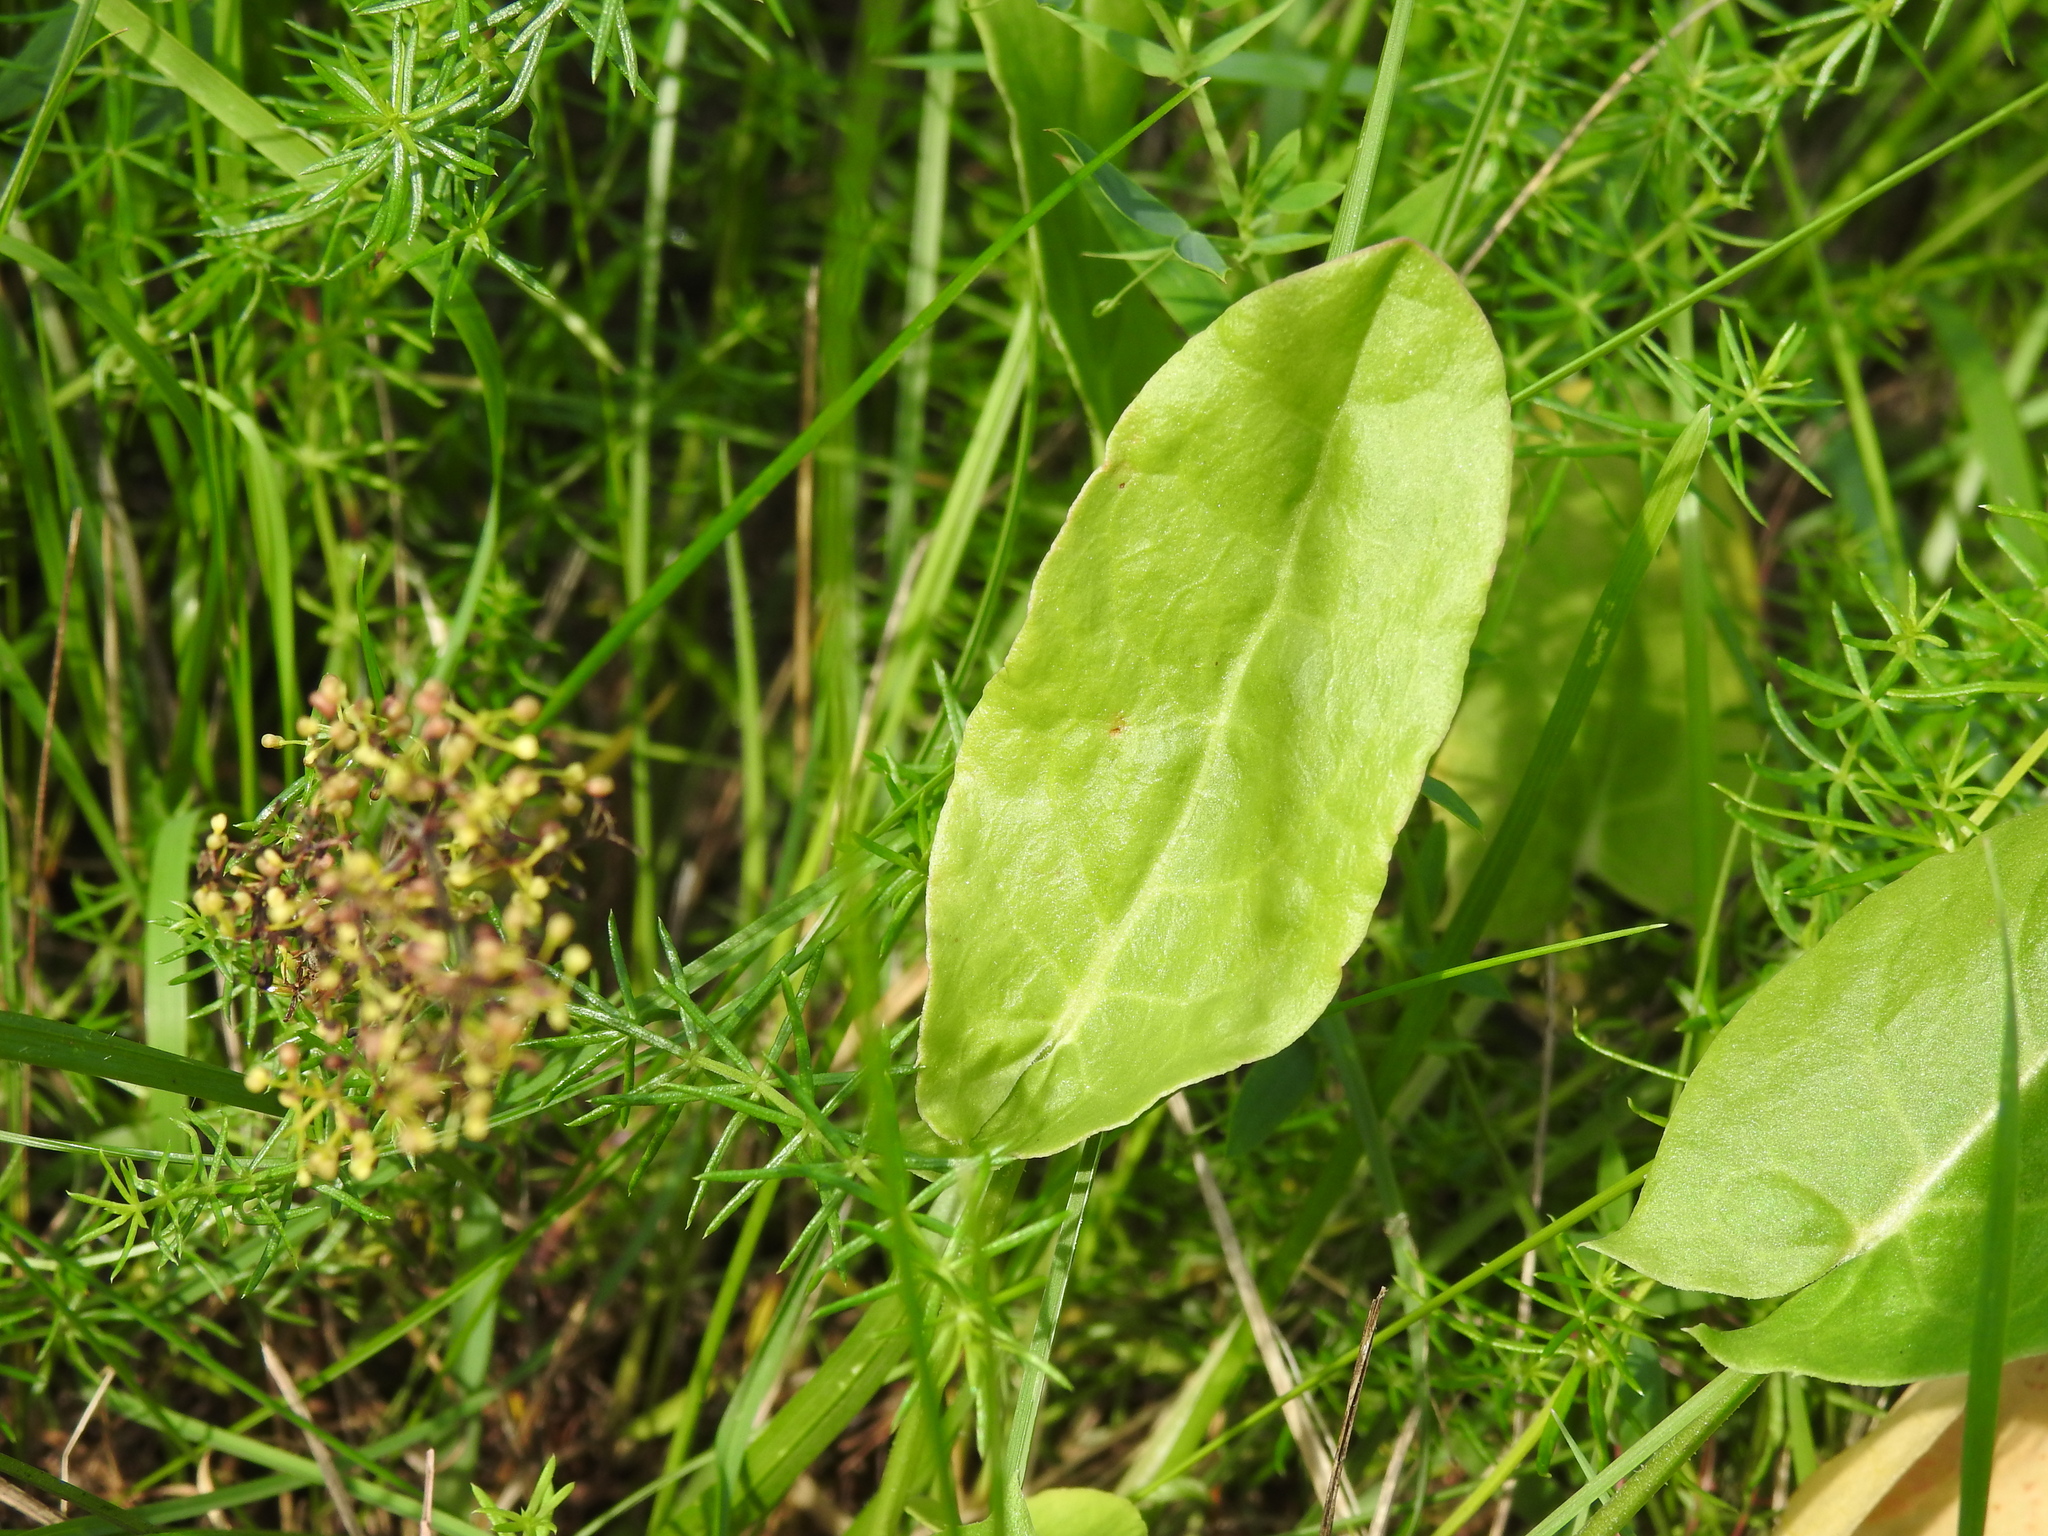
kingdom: Plantae
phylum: Tracheophyta
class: Magnoliopsida
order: Caryophyllales
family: Polygonaceae
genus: Rumex
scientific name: Rumex acetosa
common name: Garden sorrel
